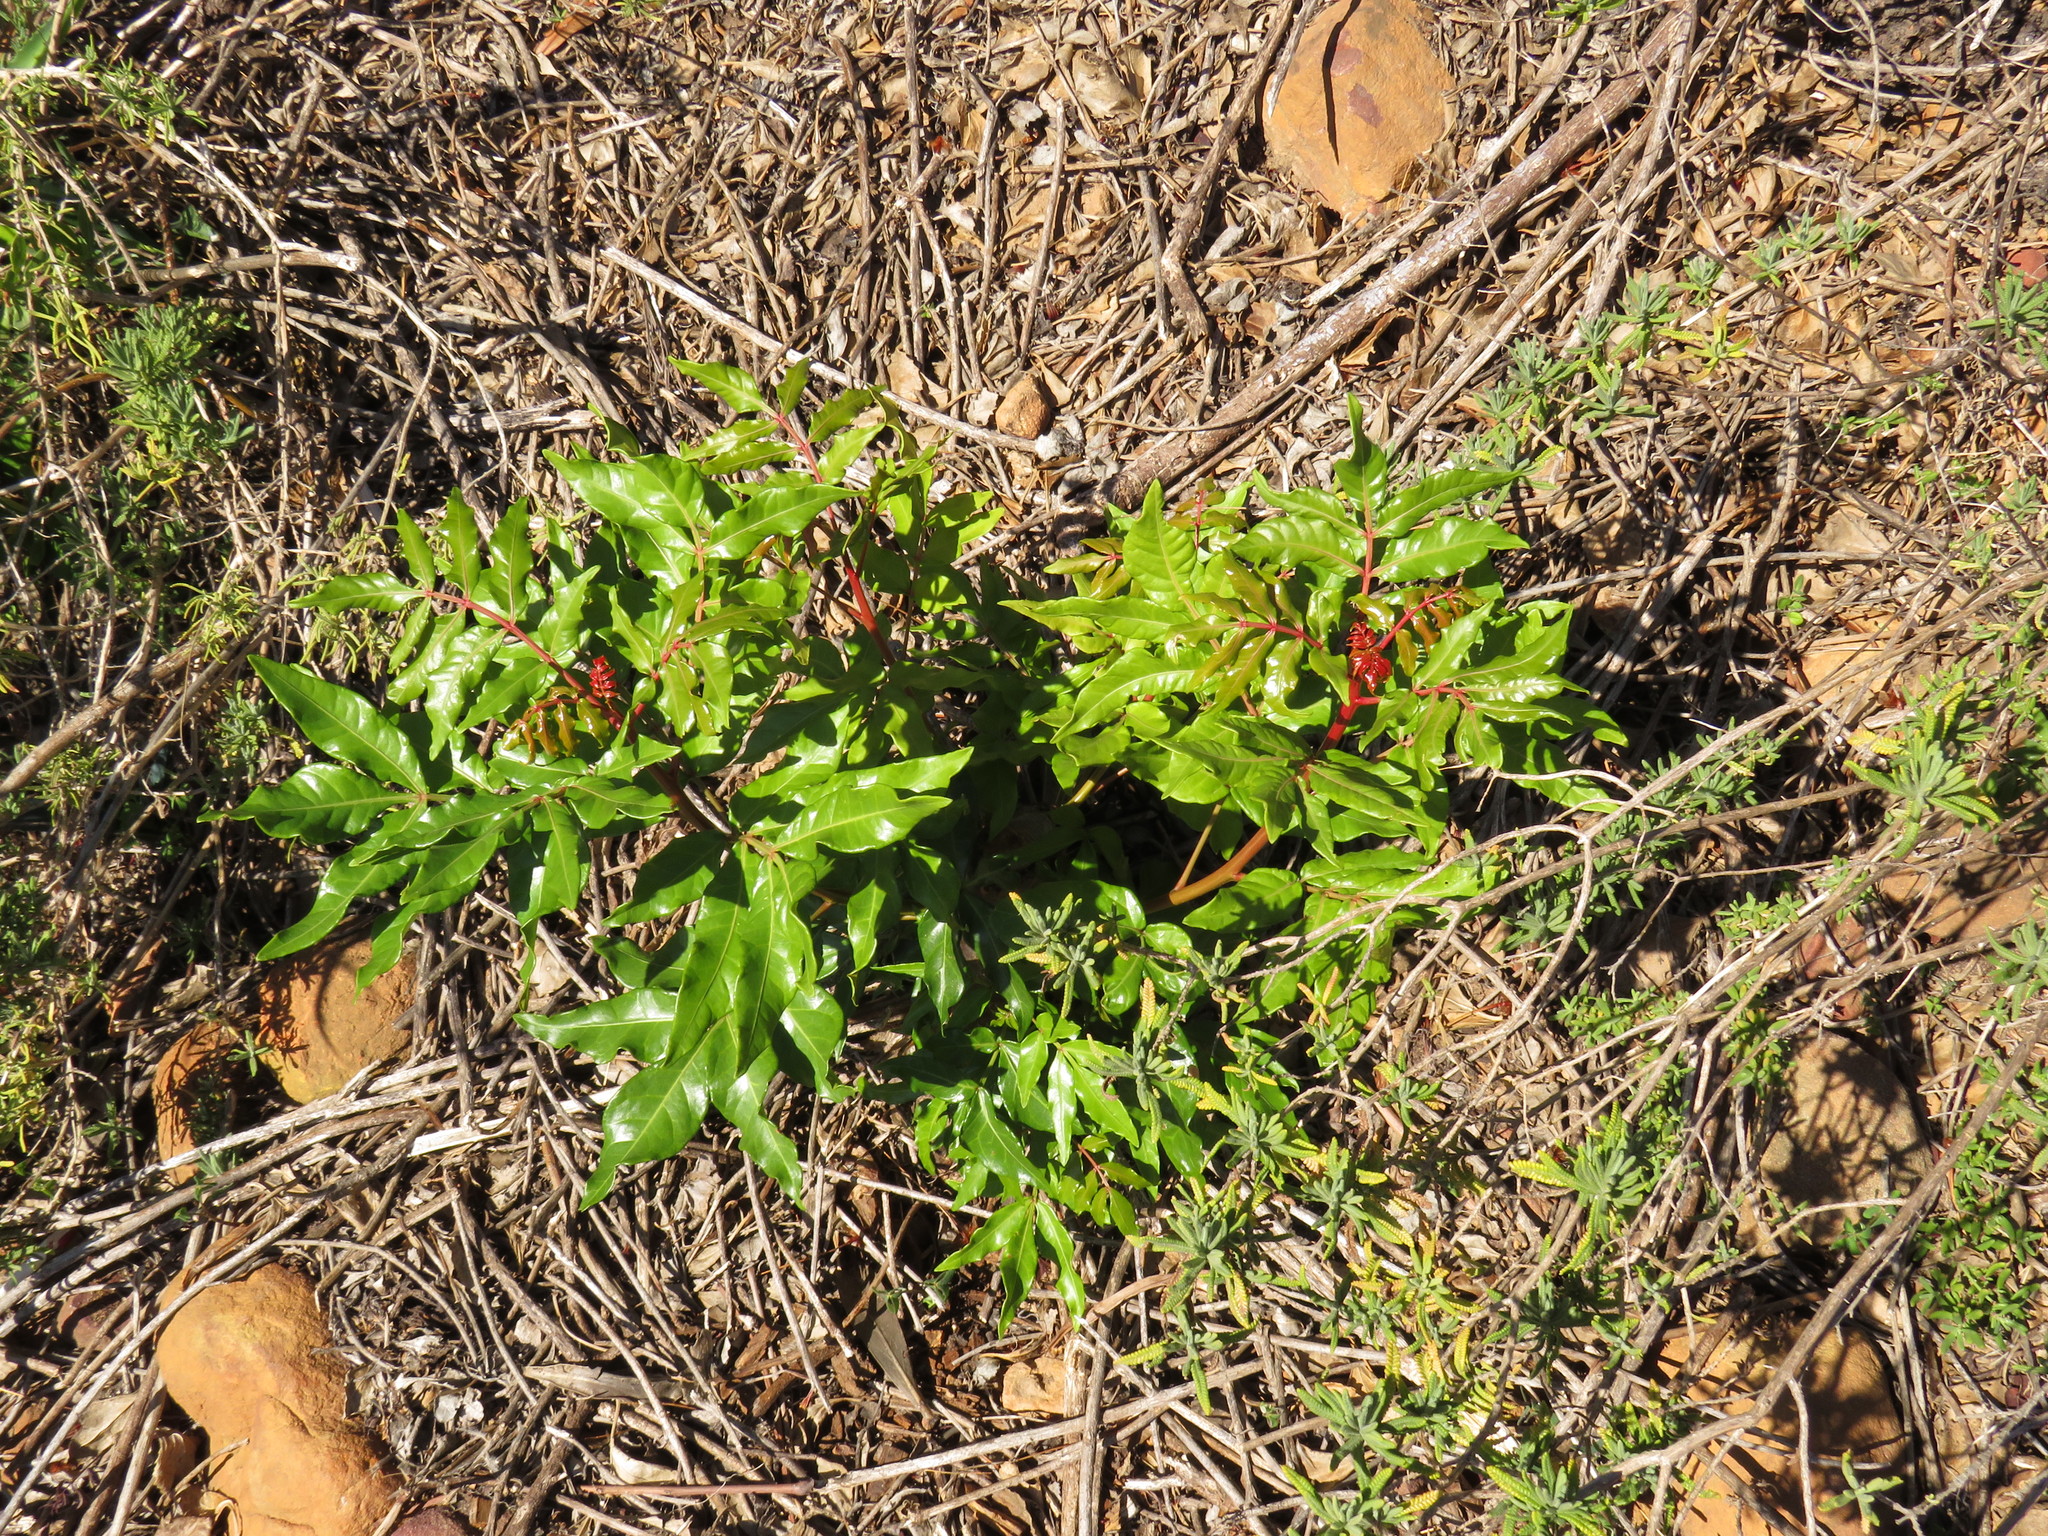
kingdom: Plantae
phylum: Tracheophyta
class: Magnoliopsida
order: Sapindales
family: Meliaceae
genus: Ekebergia
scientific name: Ekebergia capensis
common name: Cape-ash
